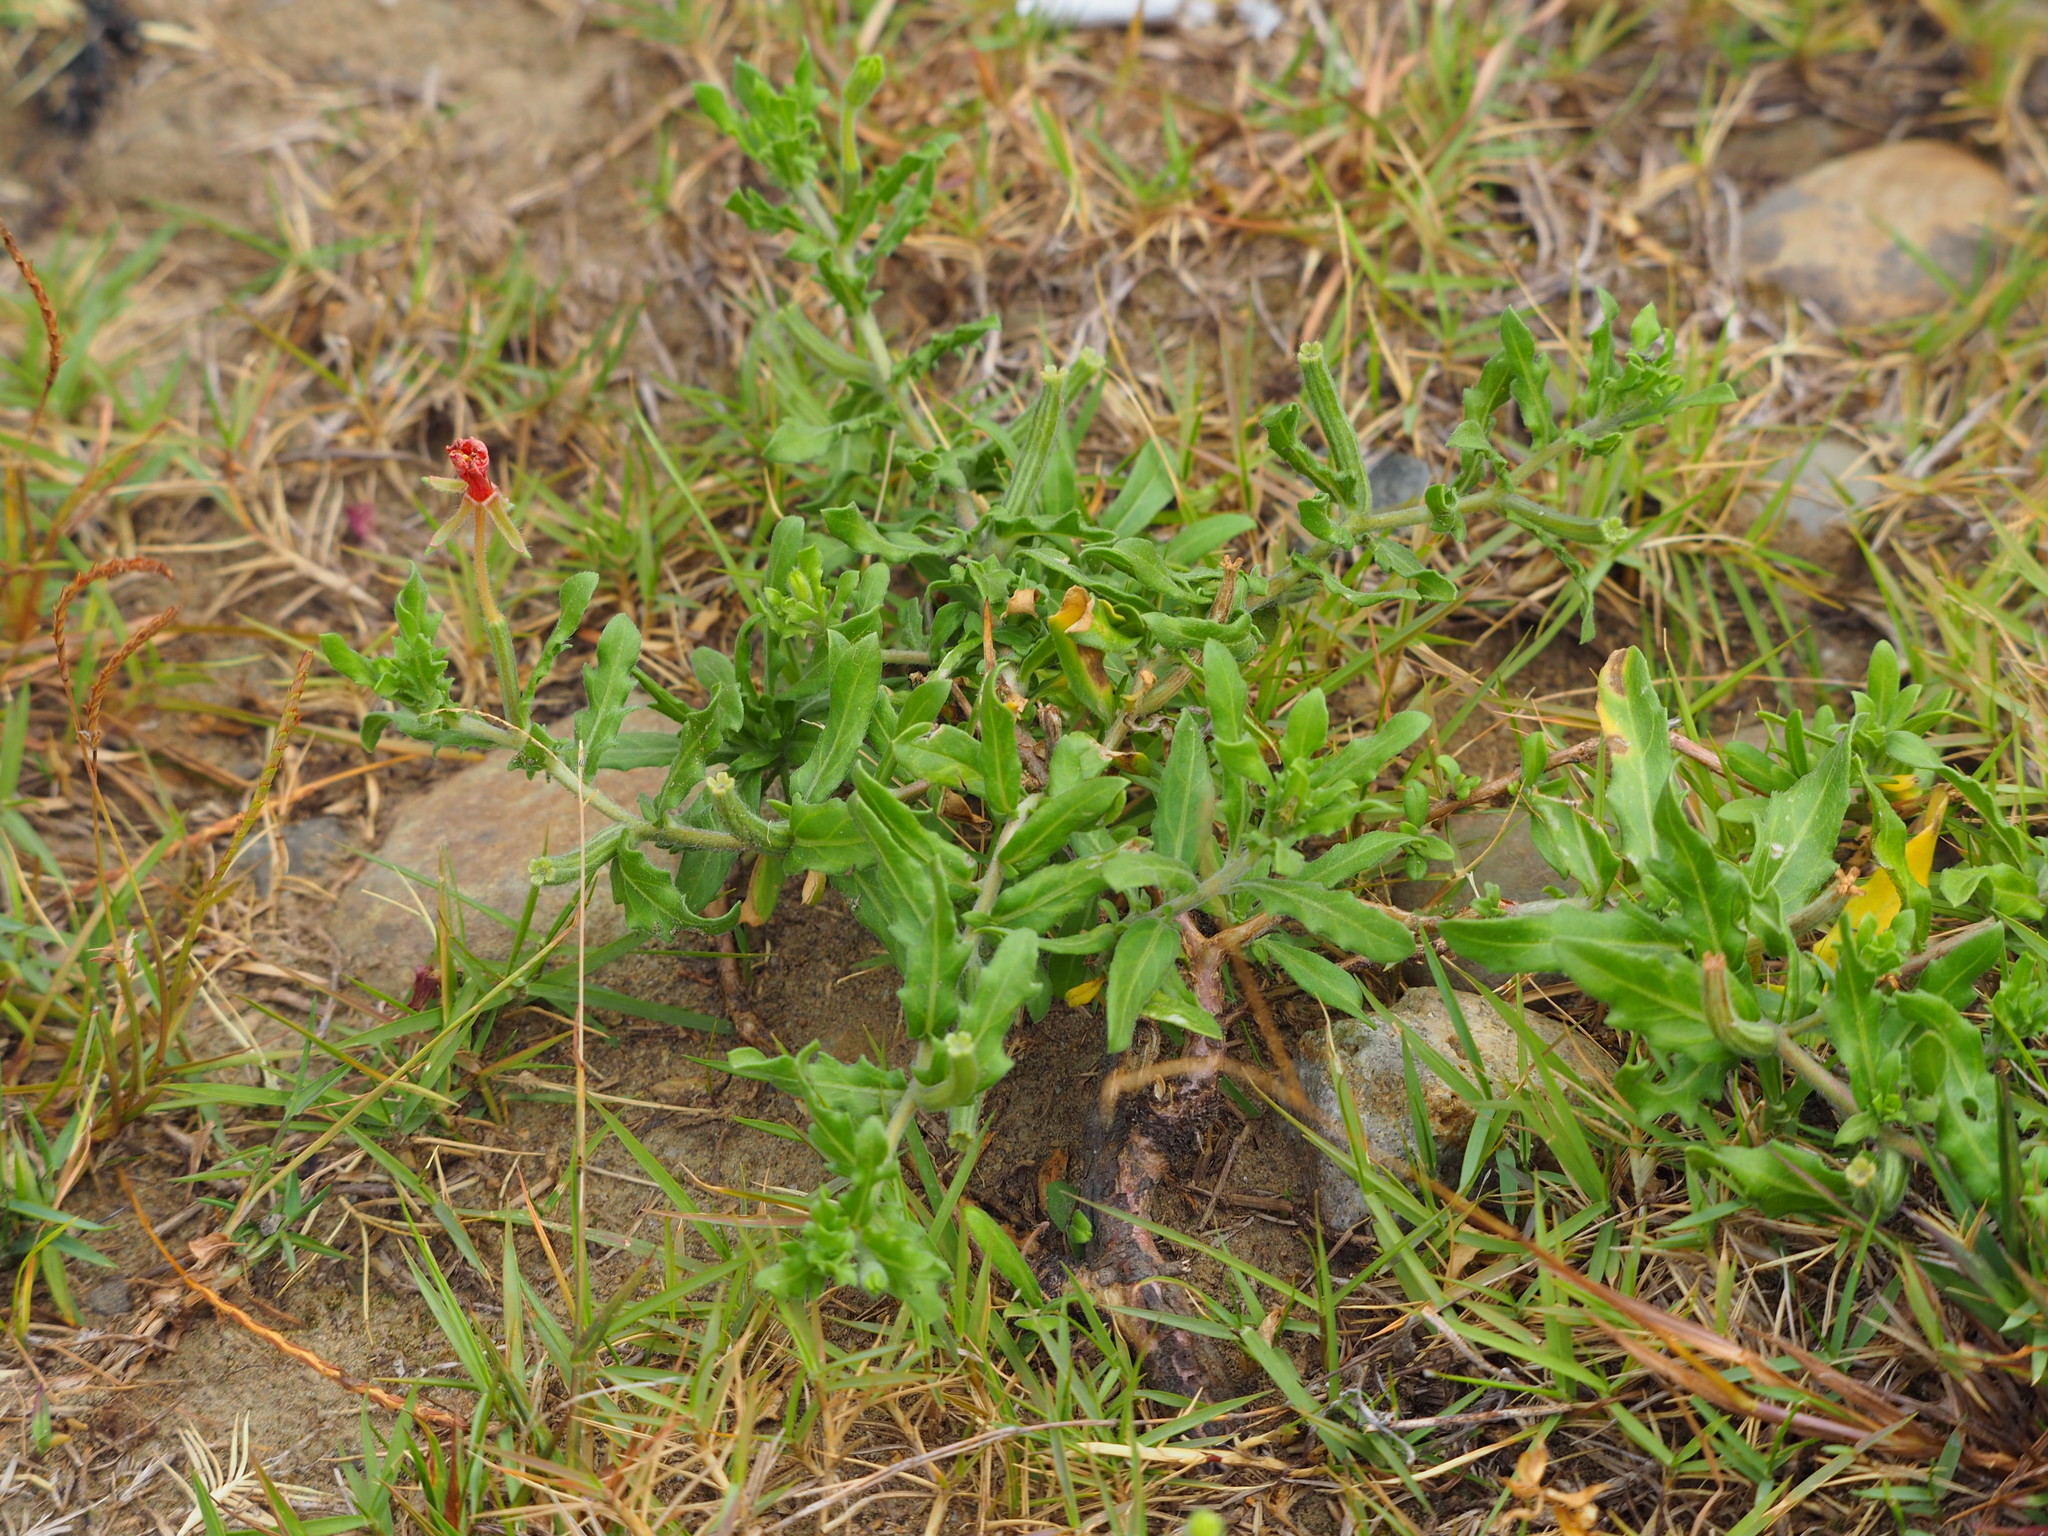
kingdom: Plantae
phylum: Tracheophyta
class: Magnoliopsida
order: Myrtales
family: Onagraceae
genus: Oenothera
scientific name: Oenothera laciniata
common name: Cut-leaved evening-primrose
